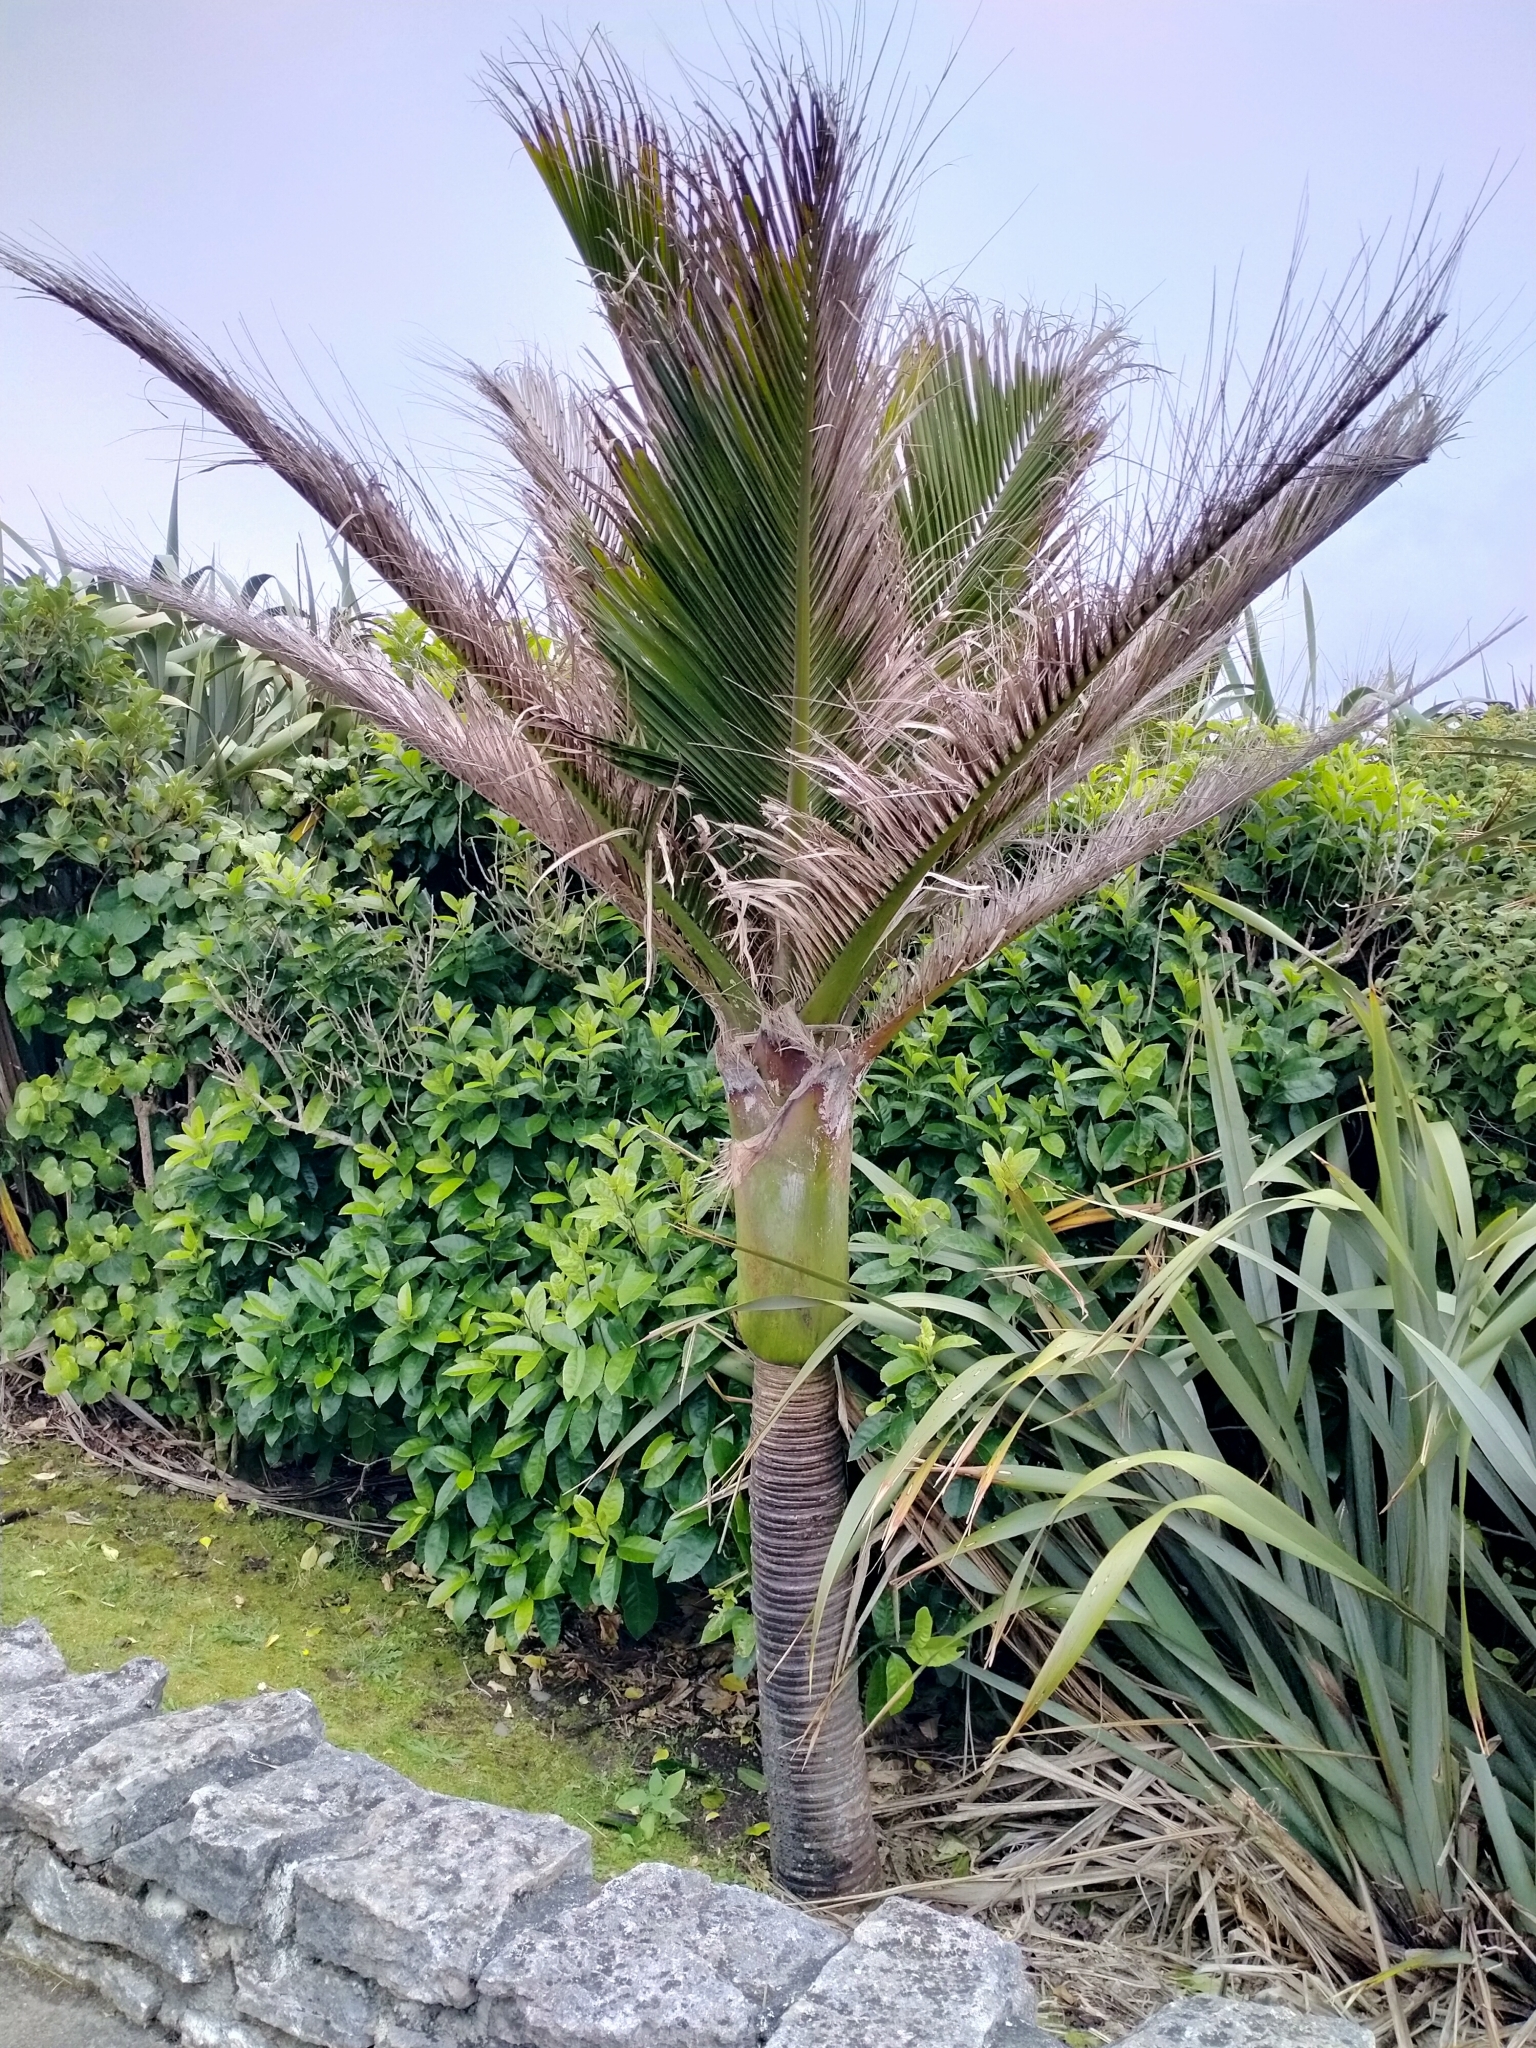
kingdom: Plantae
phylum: Tracheophyta
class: Liliopsida
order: Arecales
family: Arecaceae
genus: Rhopalostylis
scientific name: Rhopalostylis sapida
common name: Feather-duster palm
